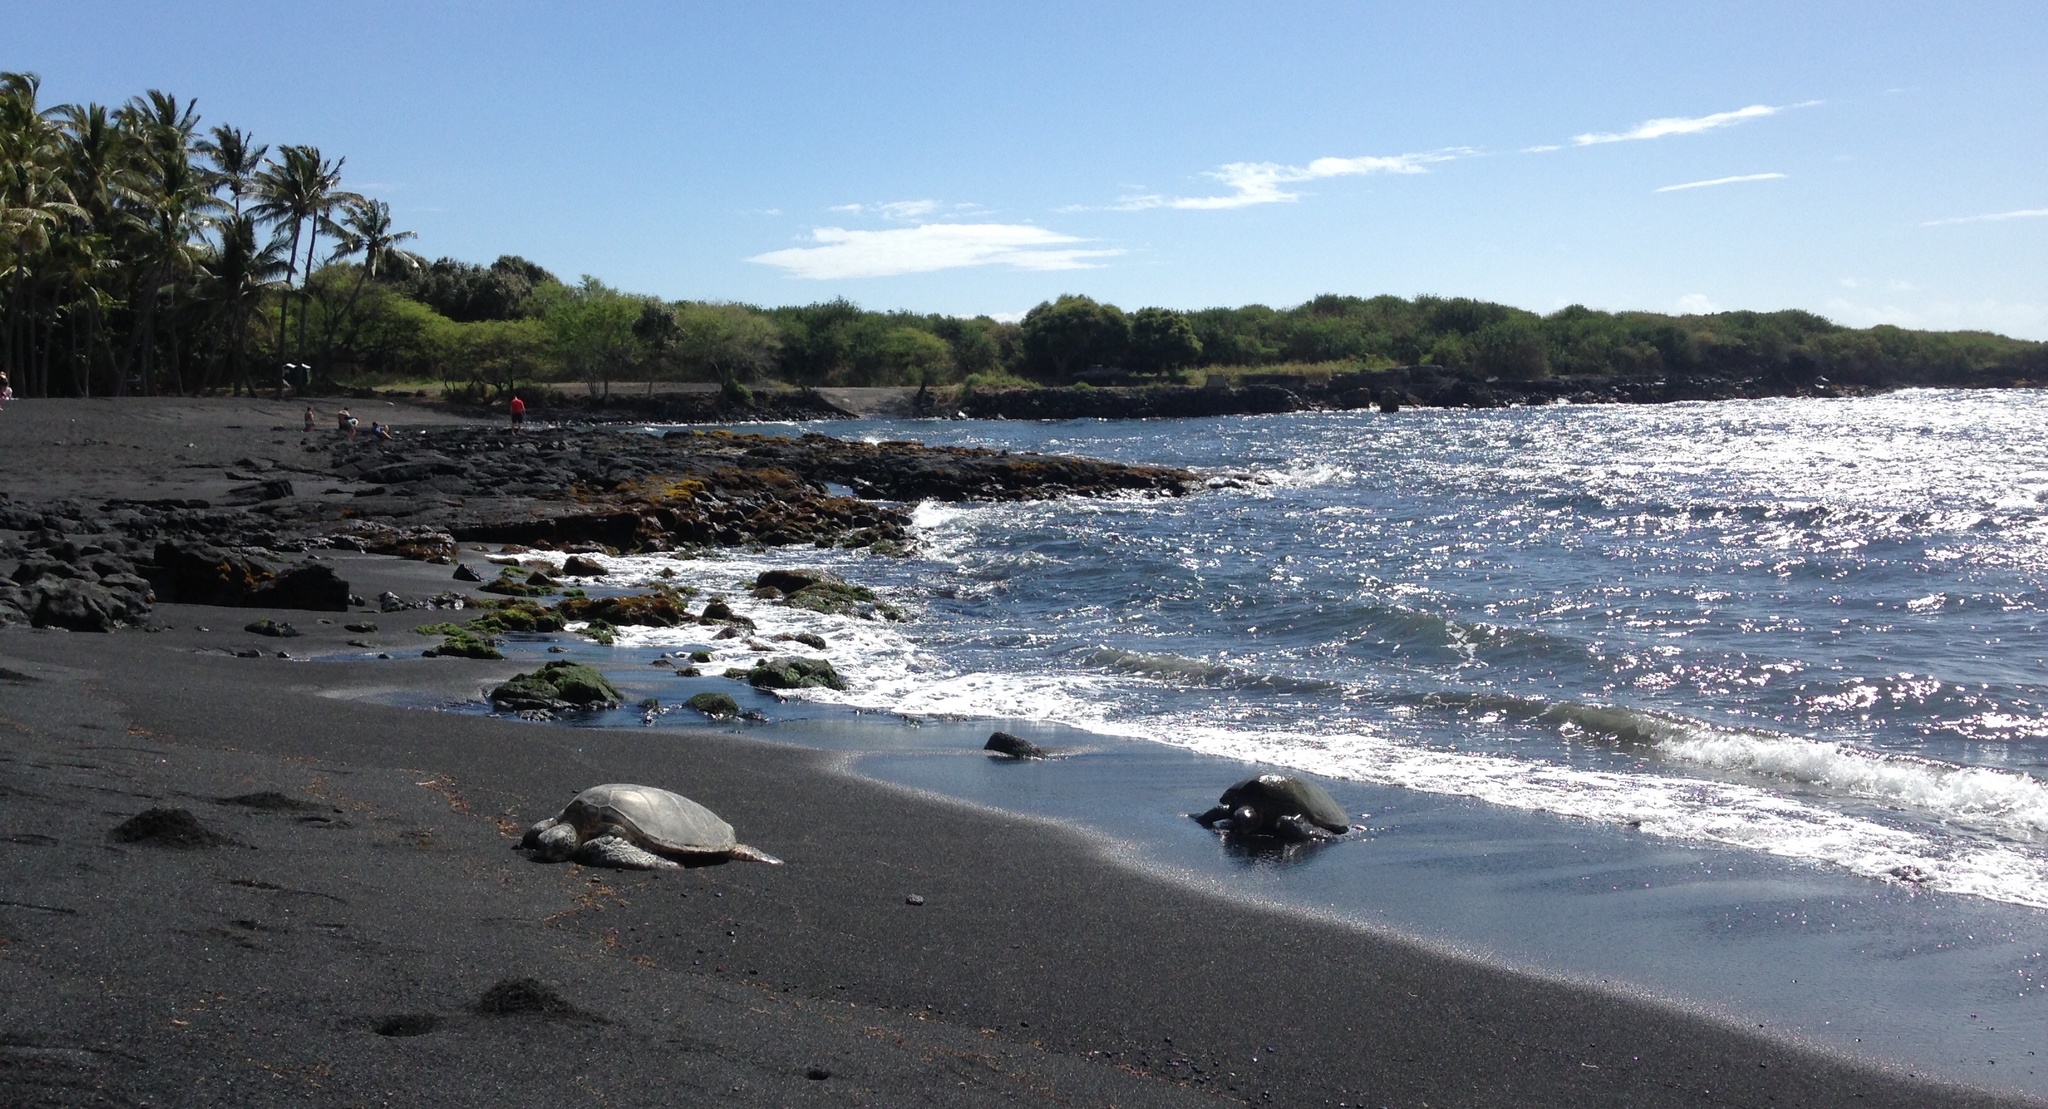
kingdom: Animalia
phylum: Chordata
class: Testudines
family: Cheloniidae
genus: Chelonia
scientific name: Chelonia mydas
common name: Green turtle
